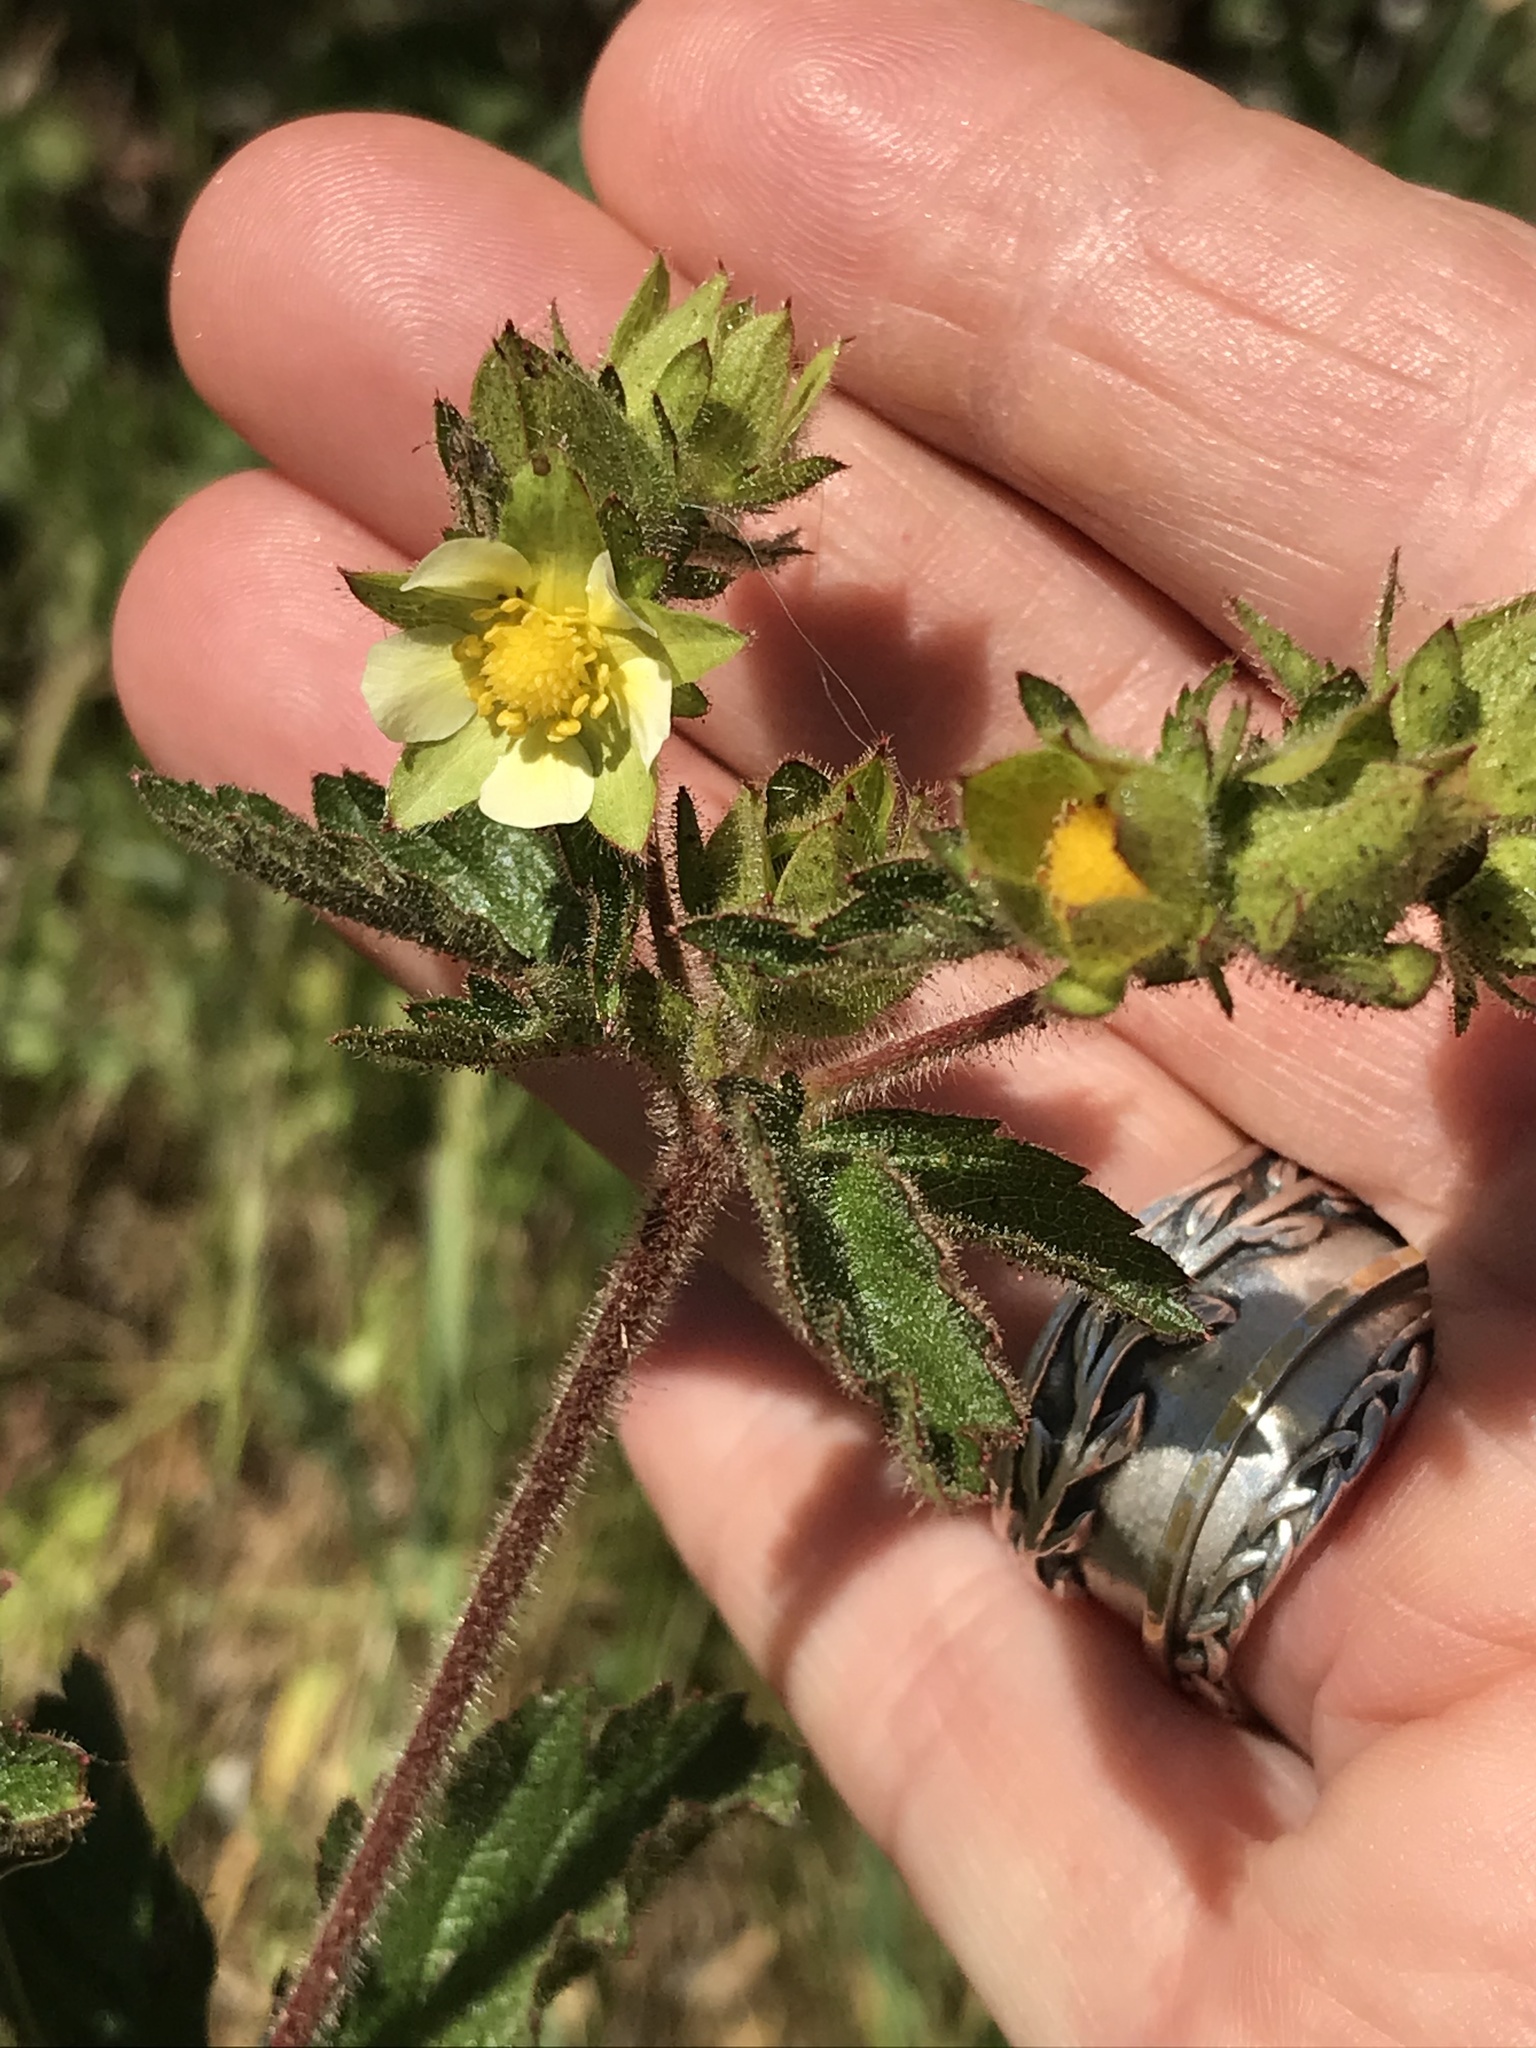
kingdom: Plantae
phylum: Tracheophyta
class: Magnoliopsida
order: Rosales
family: Rosaceae
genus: Drymocallis
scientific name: Drymocallis glandulosa
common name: Sticky cinquefoil
